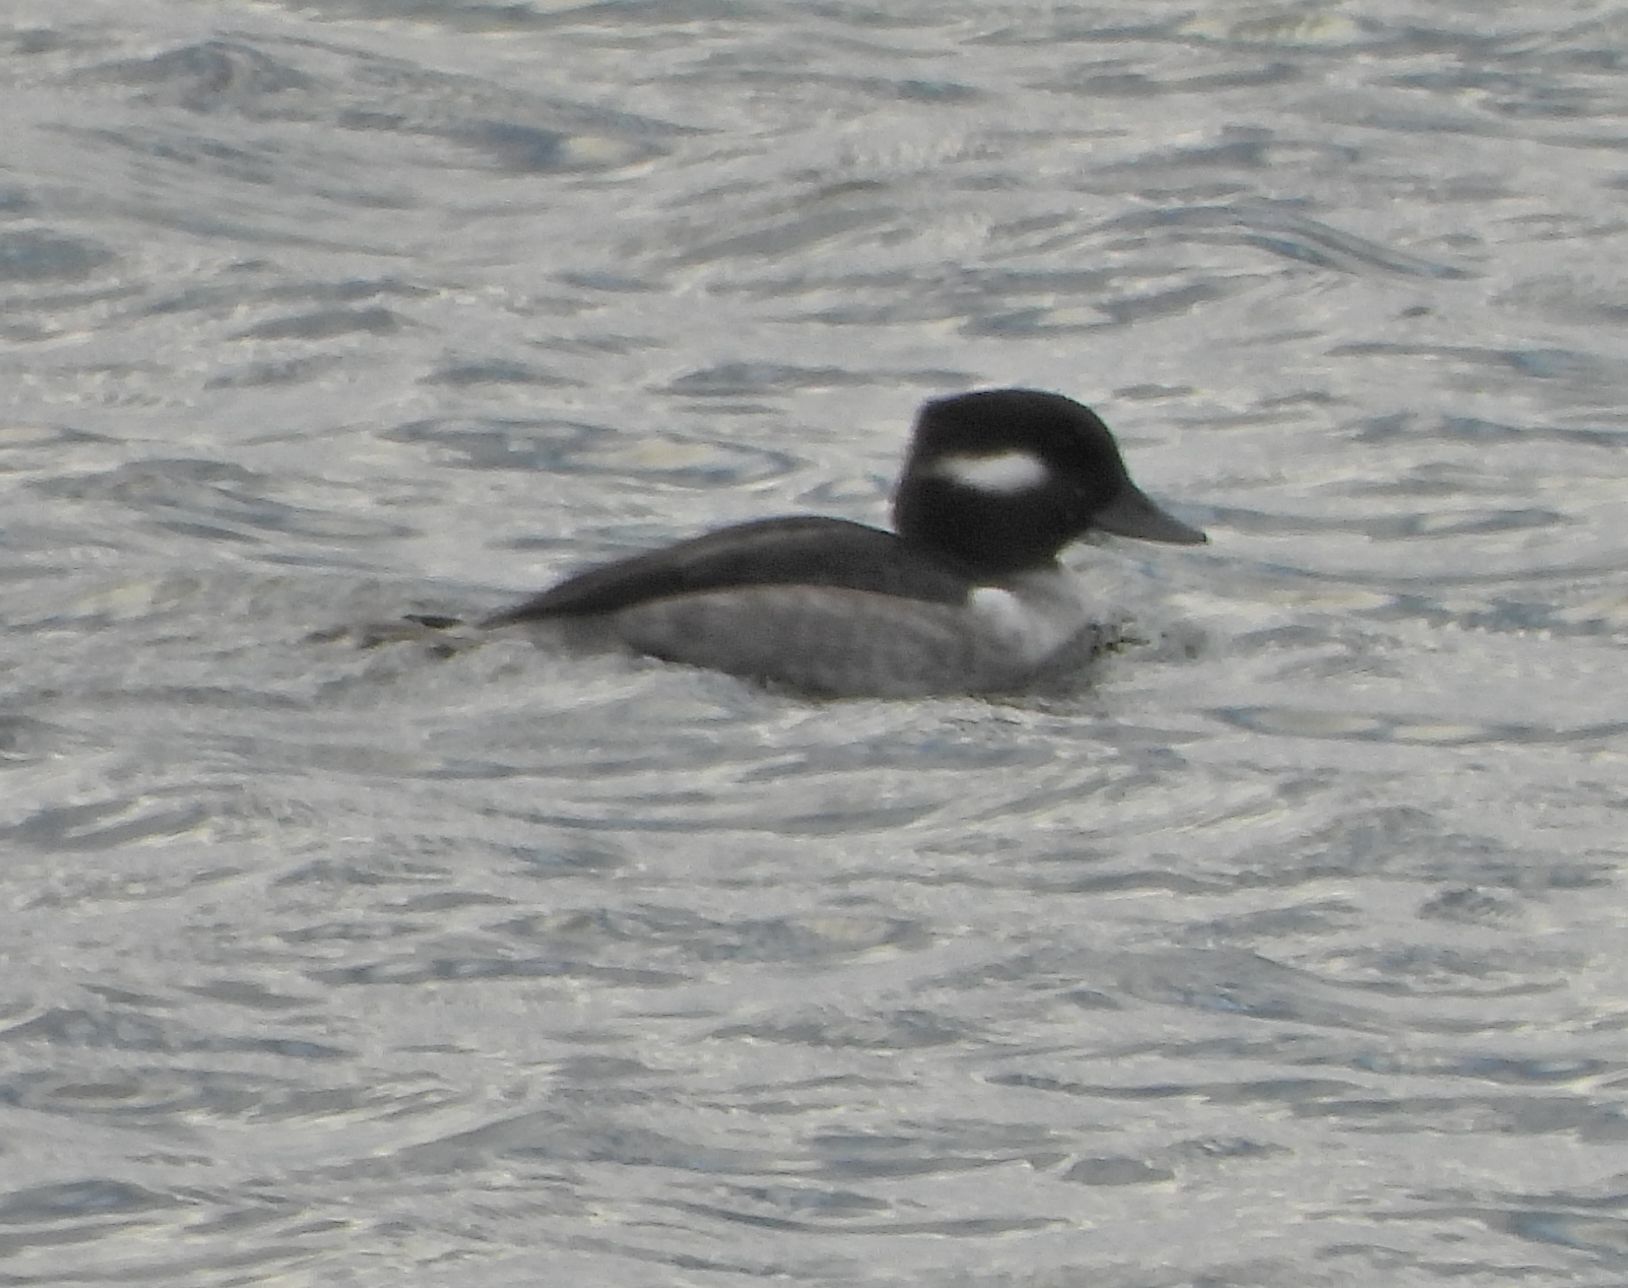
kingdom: Animalia
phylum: Chordata
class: Aves
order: Anseriformes
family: Anatidae
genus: Bucephala
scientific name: Bucephala albeola
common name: Bufflehead
